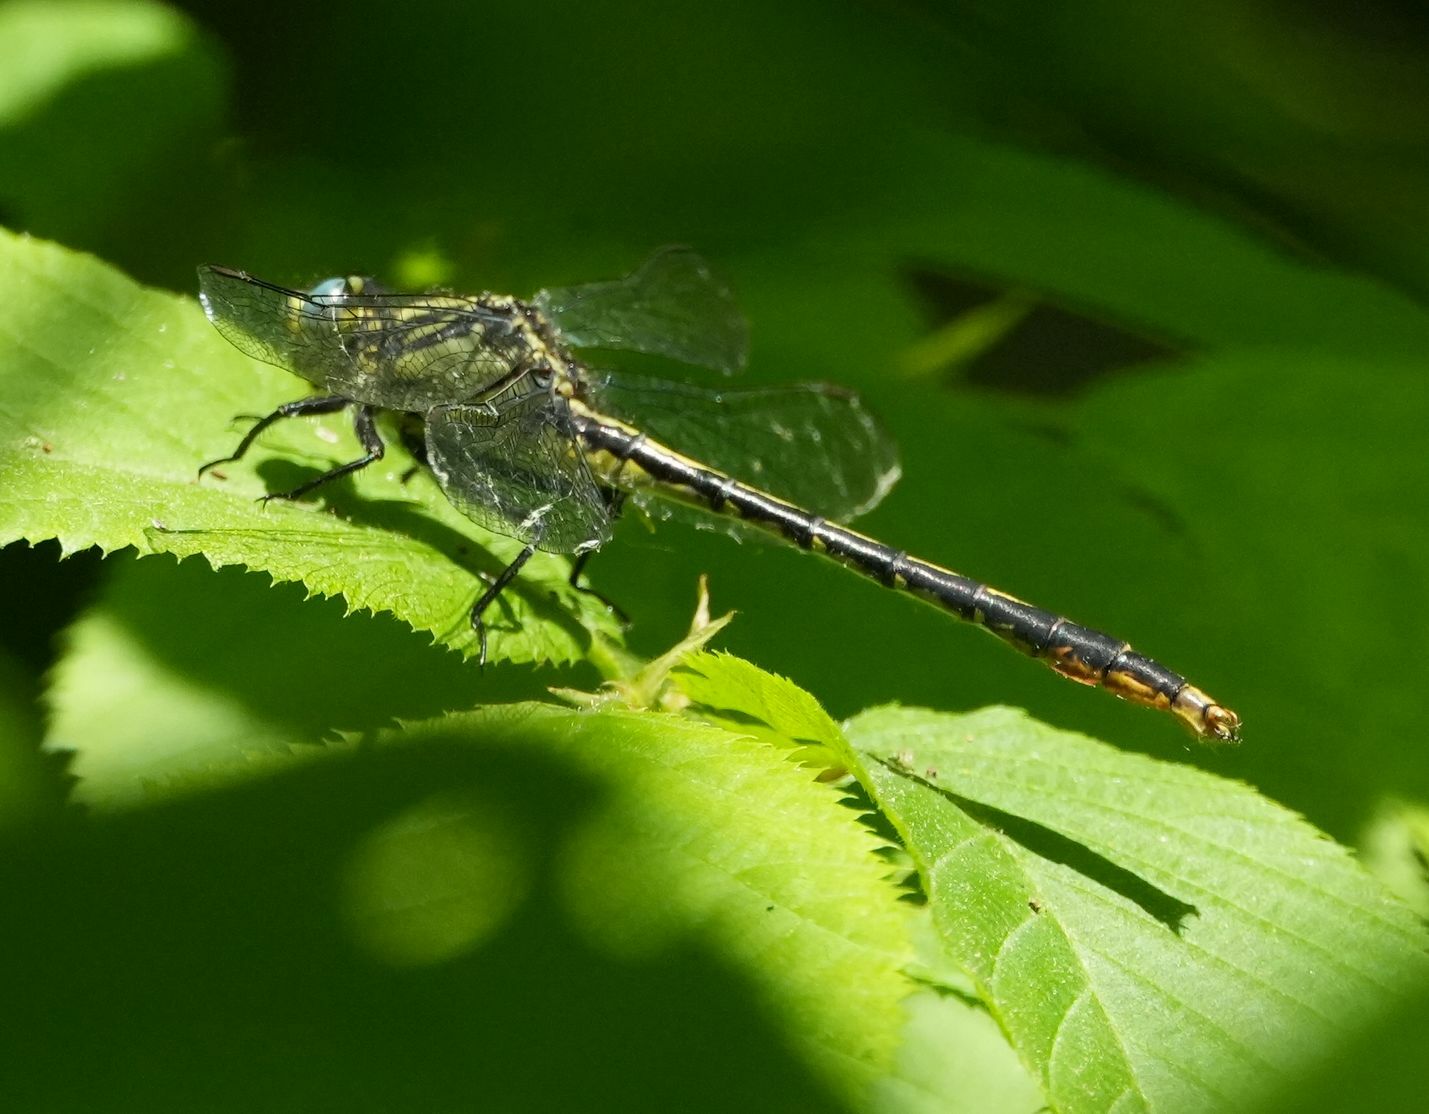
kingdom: Animalia
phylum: Arthropoda
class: Insecta
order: Odonata
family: Gomphidae
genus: Arigomphus
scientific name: Arigomphus furcifer
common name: Lilypad clubtail
